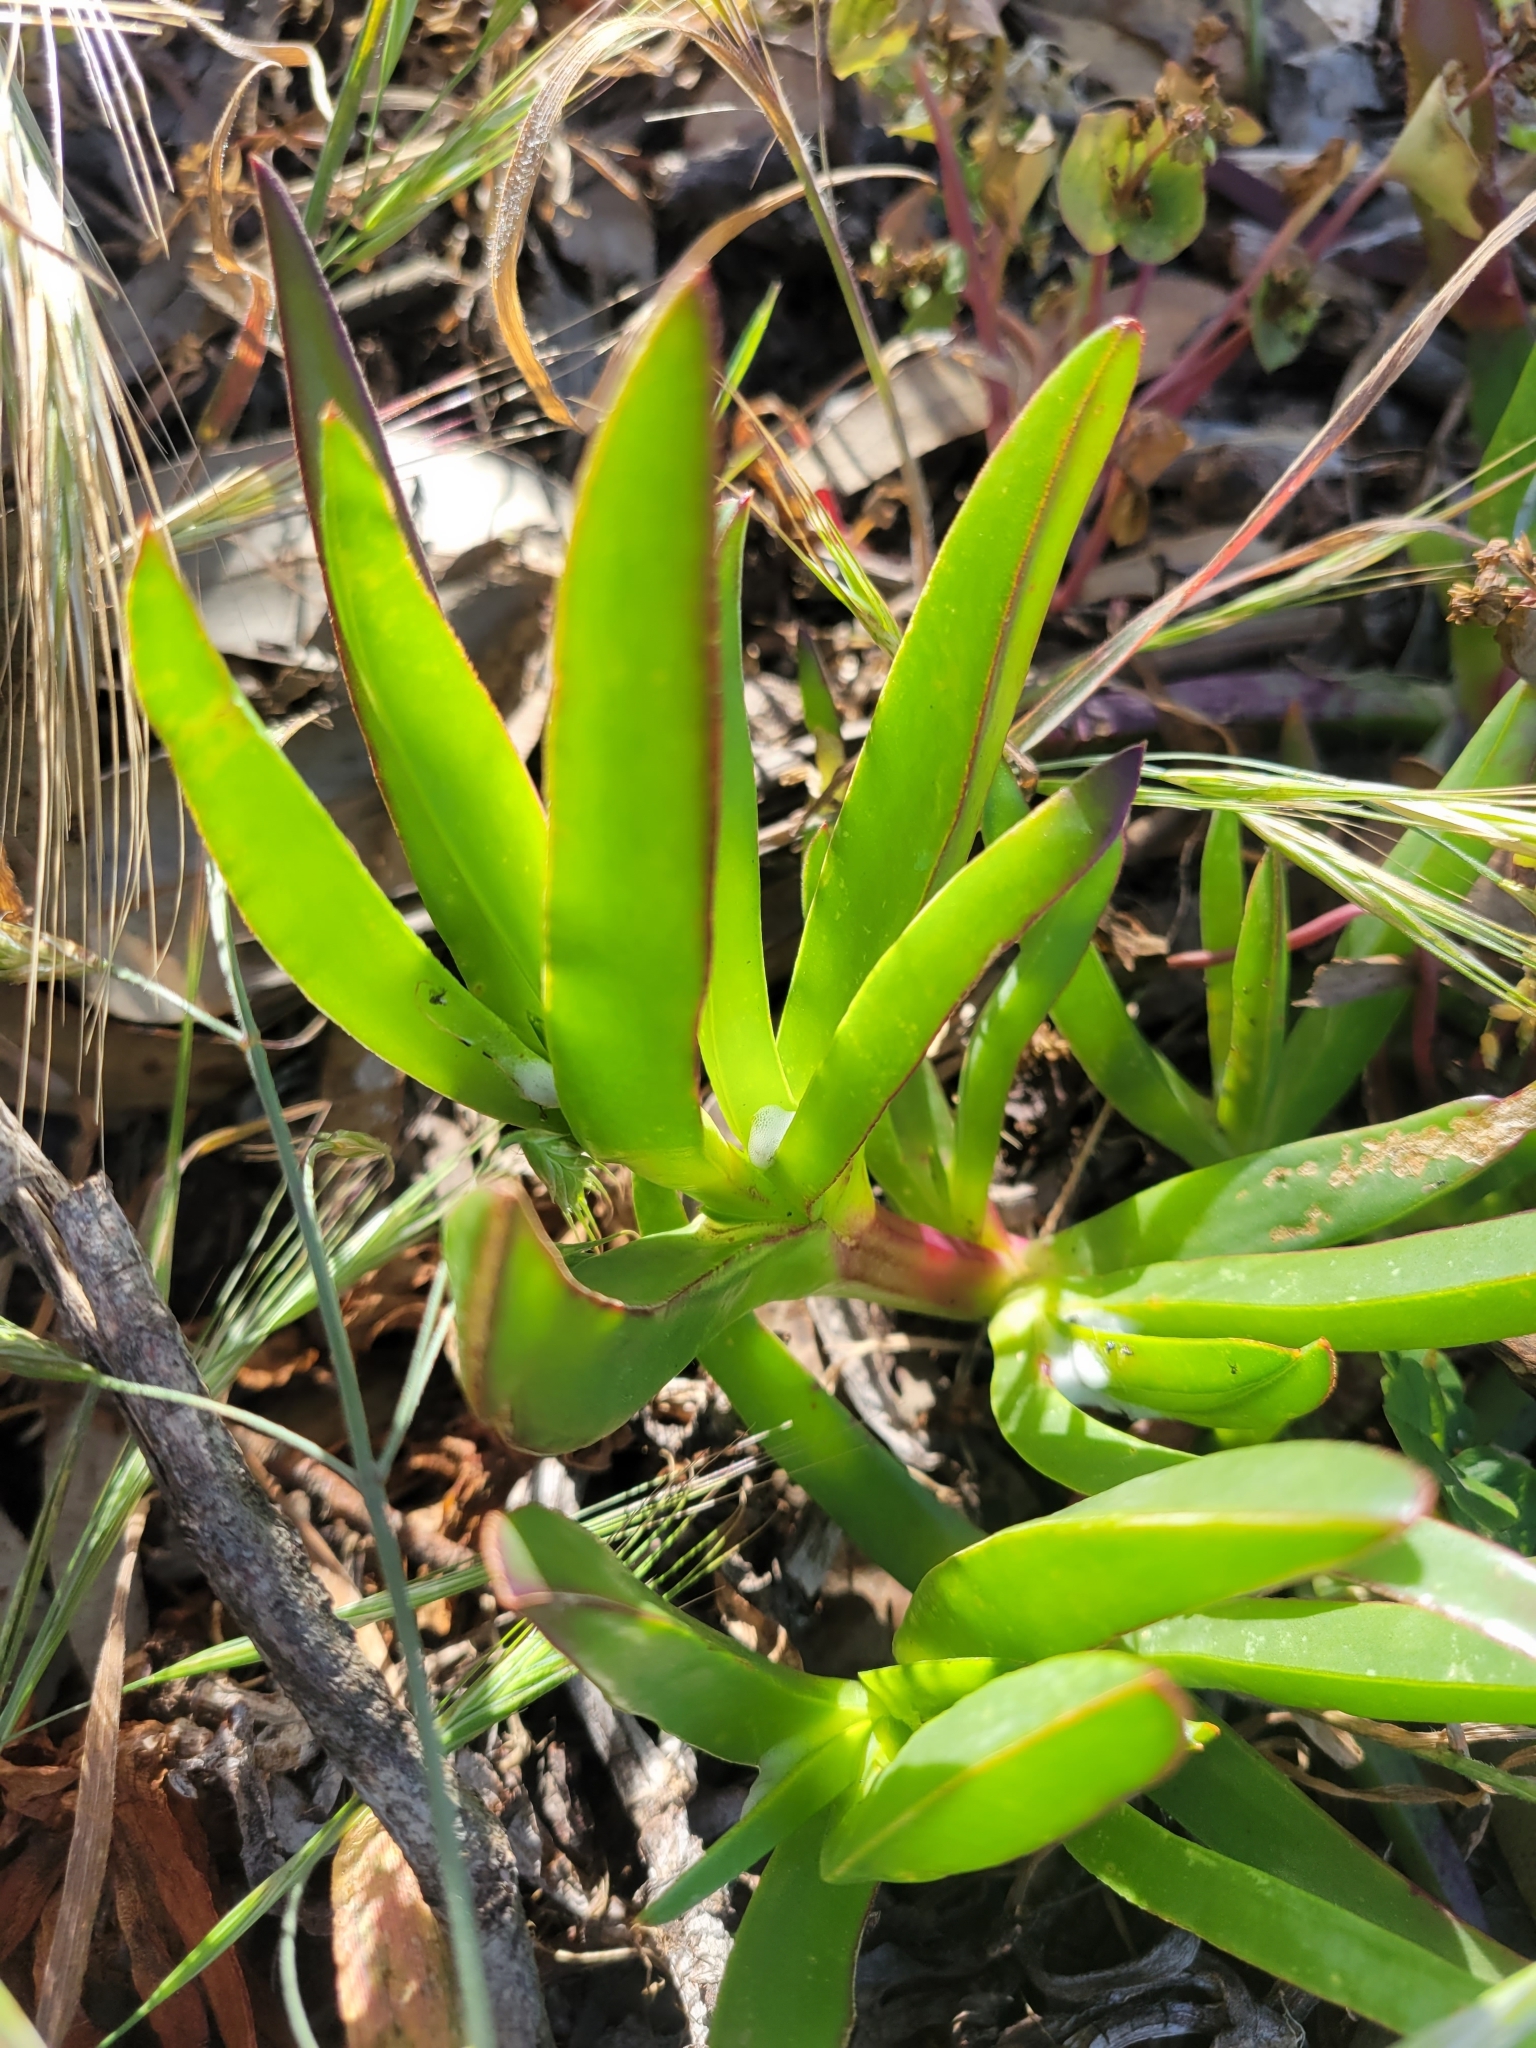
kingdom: Plantae
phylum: Tracheophyta
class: Magnoliopsida
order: Caryophyllales
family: Aizoaceae
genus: Carpobrotus
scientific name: Carpobrotus edulis
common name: Hottentot-fig
